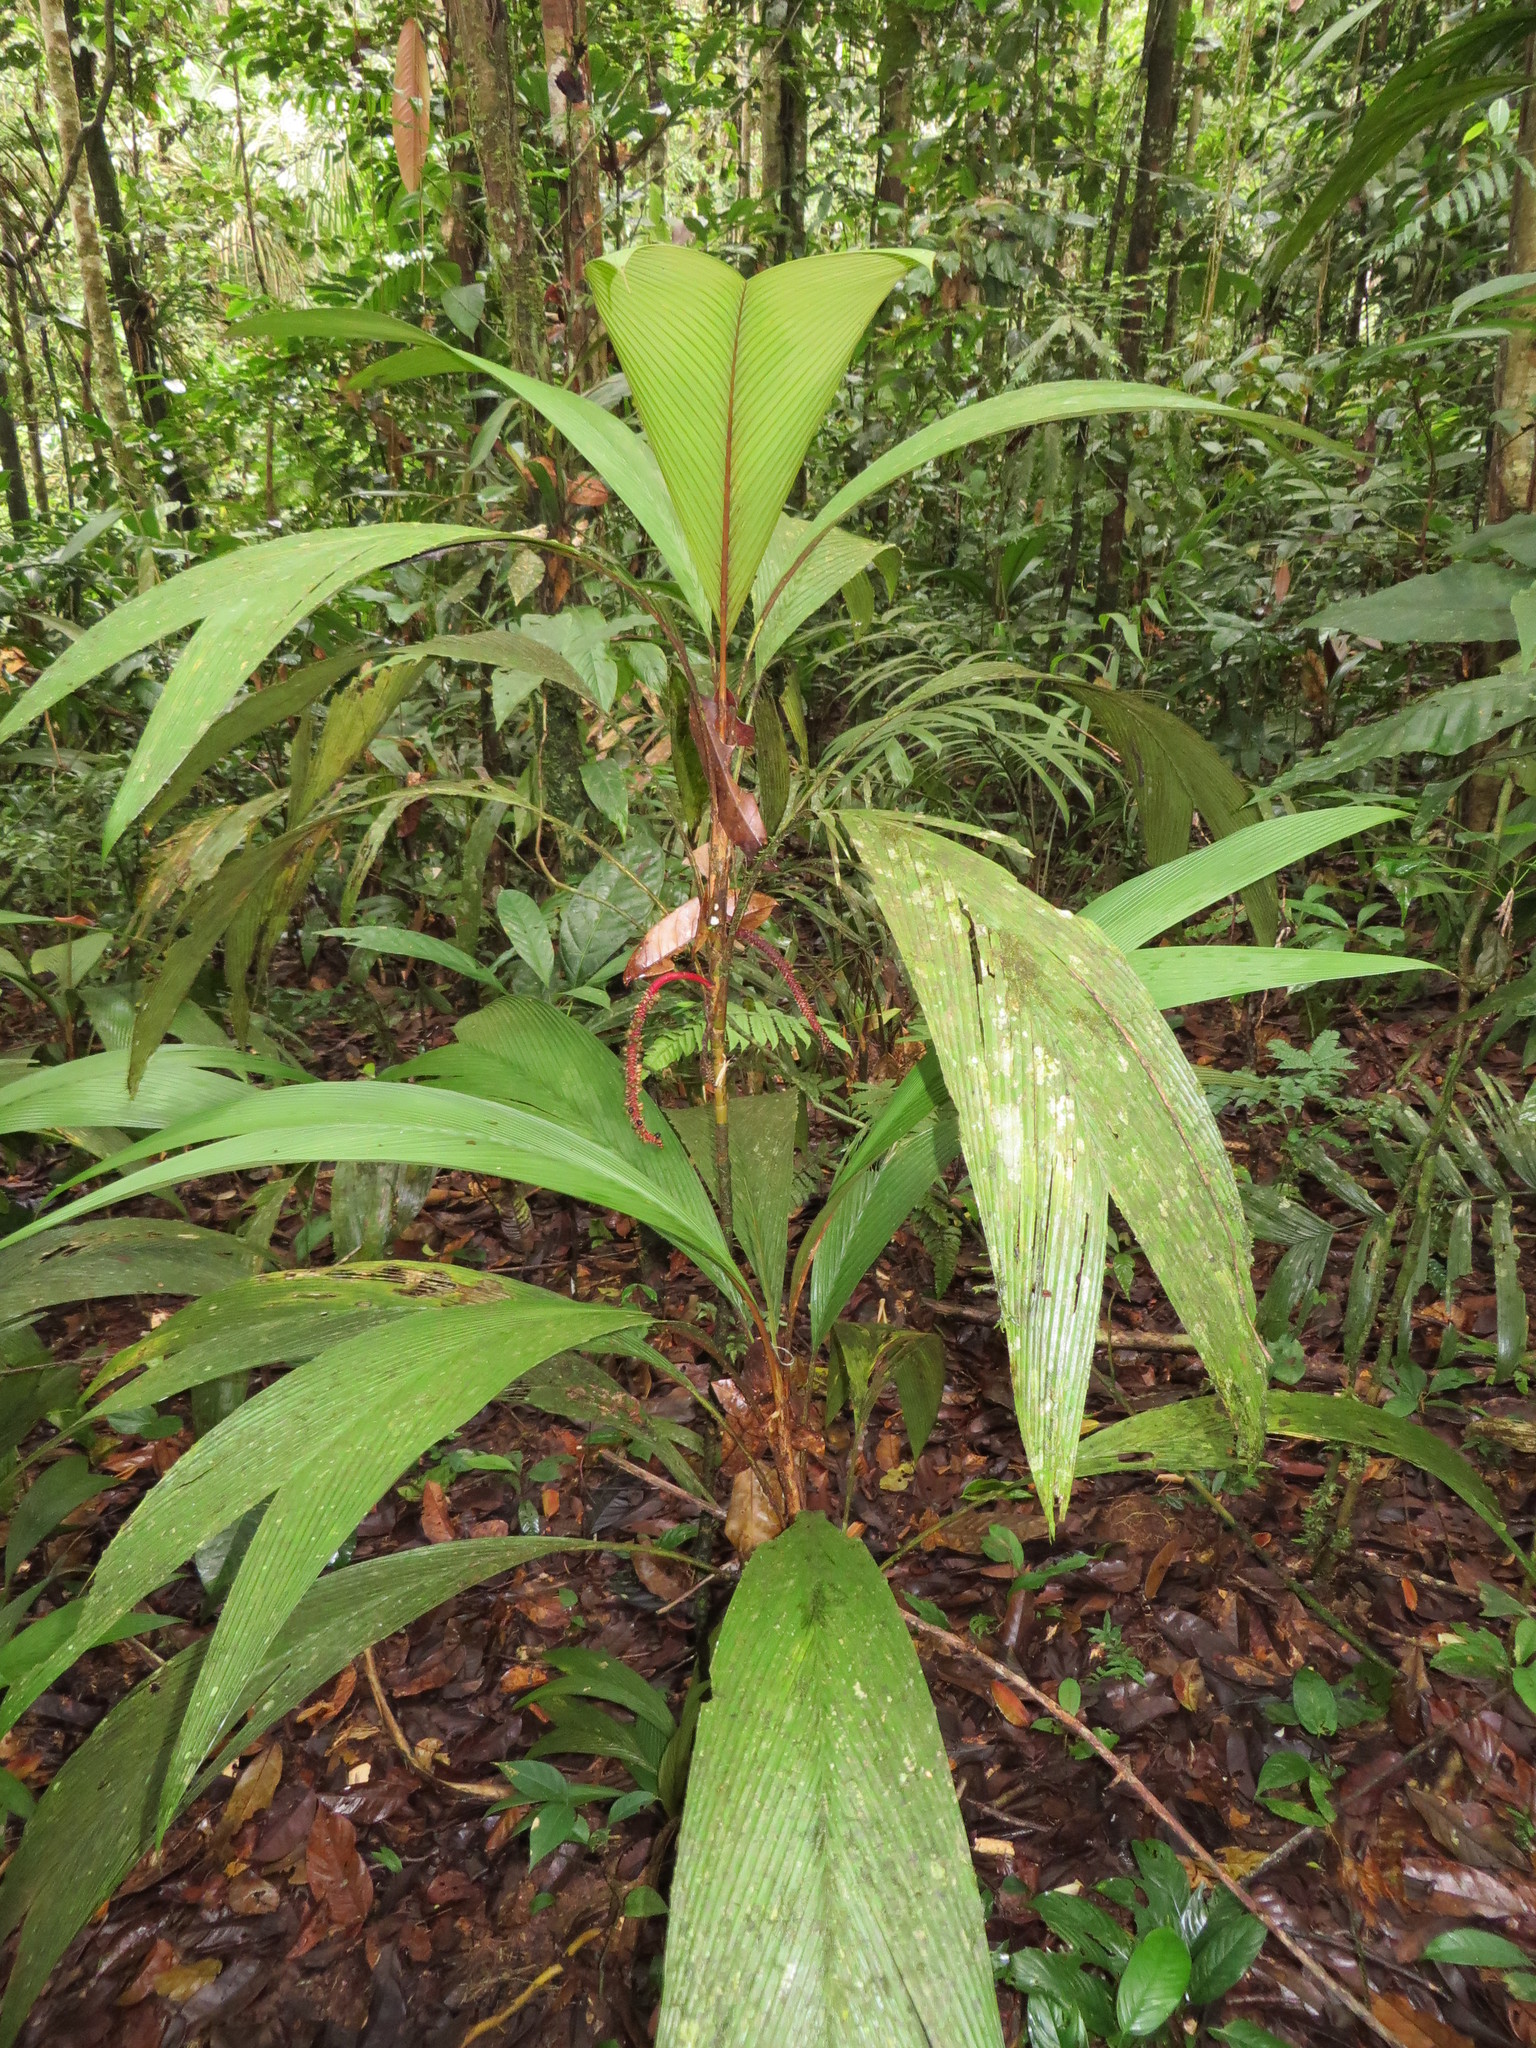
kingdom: Plantae
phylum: Tracheophyta
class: Liliopsida
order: Arecales
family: Arecaceae
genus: Geonoma
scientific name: Geonoma stricta
